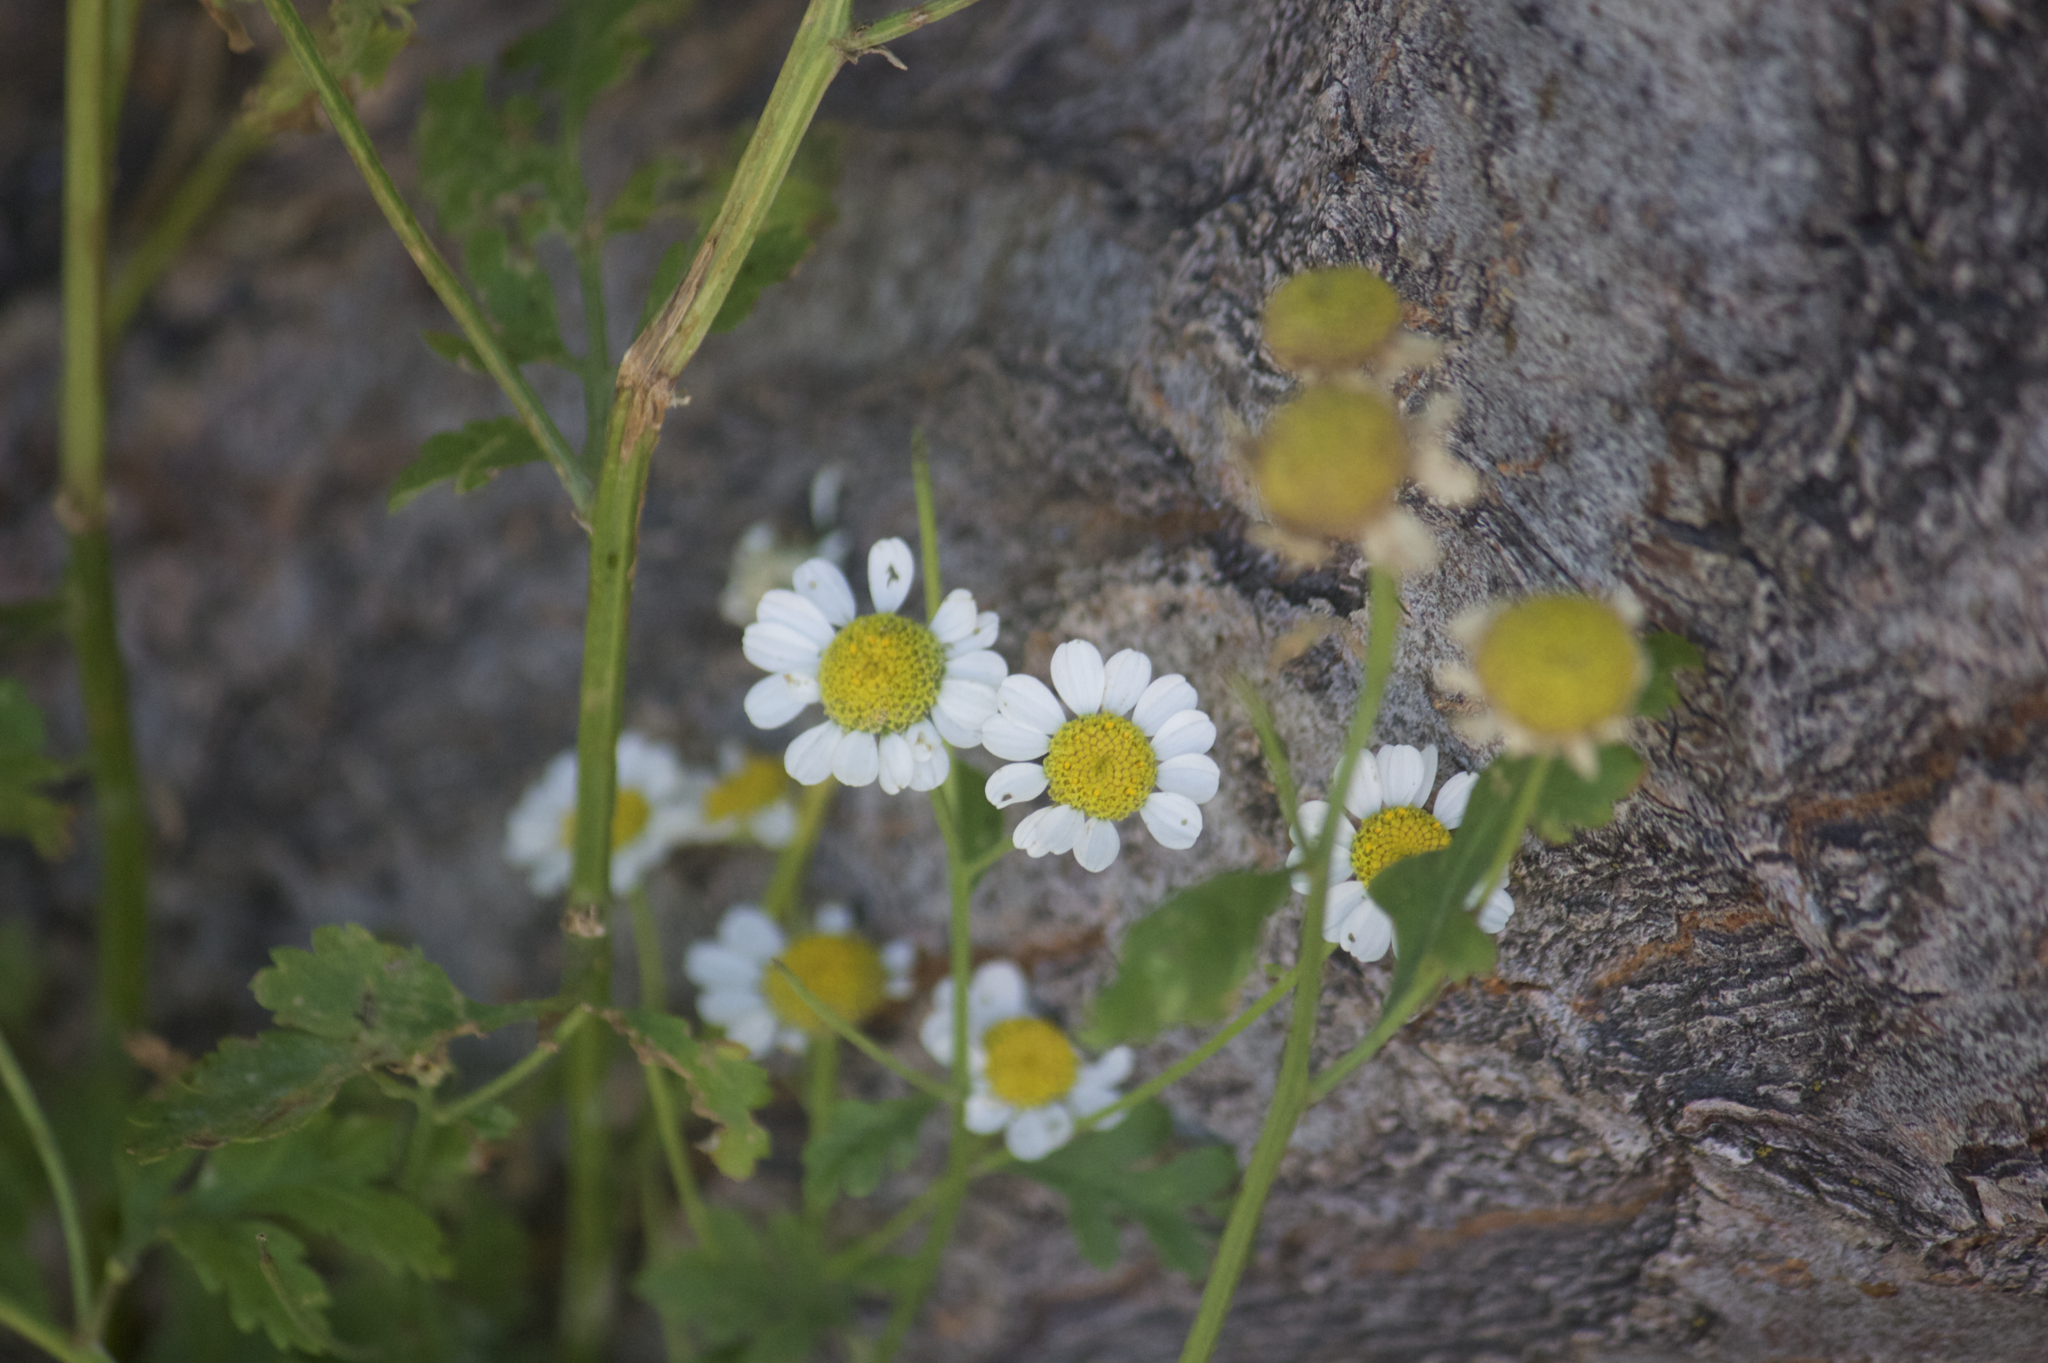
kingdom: Plantae
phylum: Tracheophyta
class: Magnoliopsida
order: Asterales
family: Asteraceae
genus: Tanacetum
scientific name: Tanacetum parthenium
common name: Feverfew
